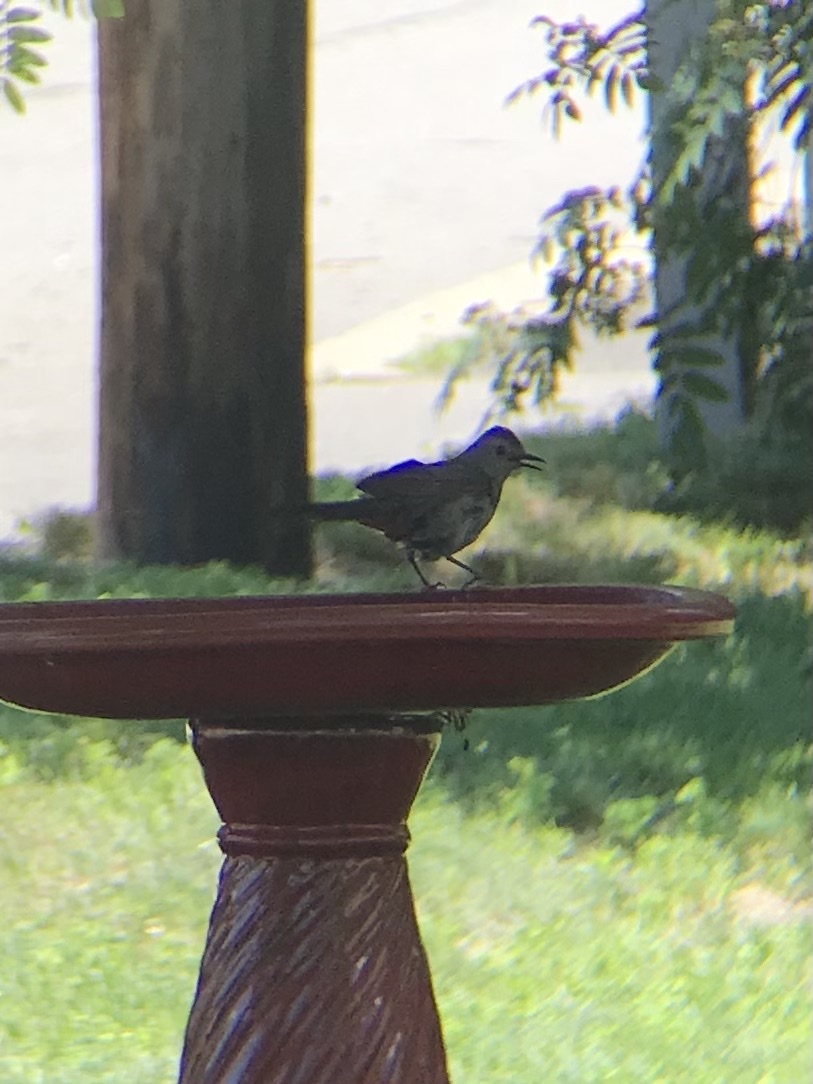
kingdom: Animalia
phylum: Chordata
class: Aves
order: Passeriformes
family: Mimidae
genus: Dumetella
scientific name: Dumetella carolinensis
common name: Gray catbird
